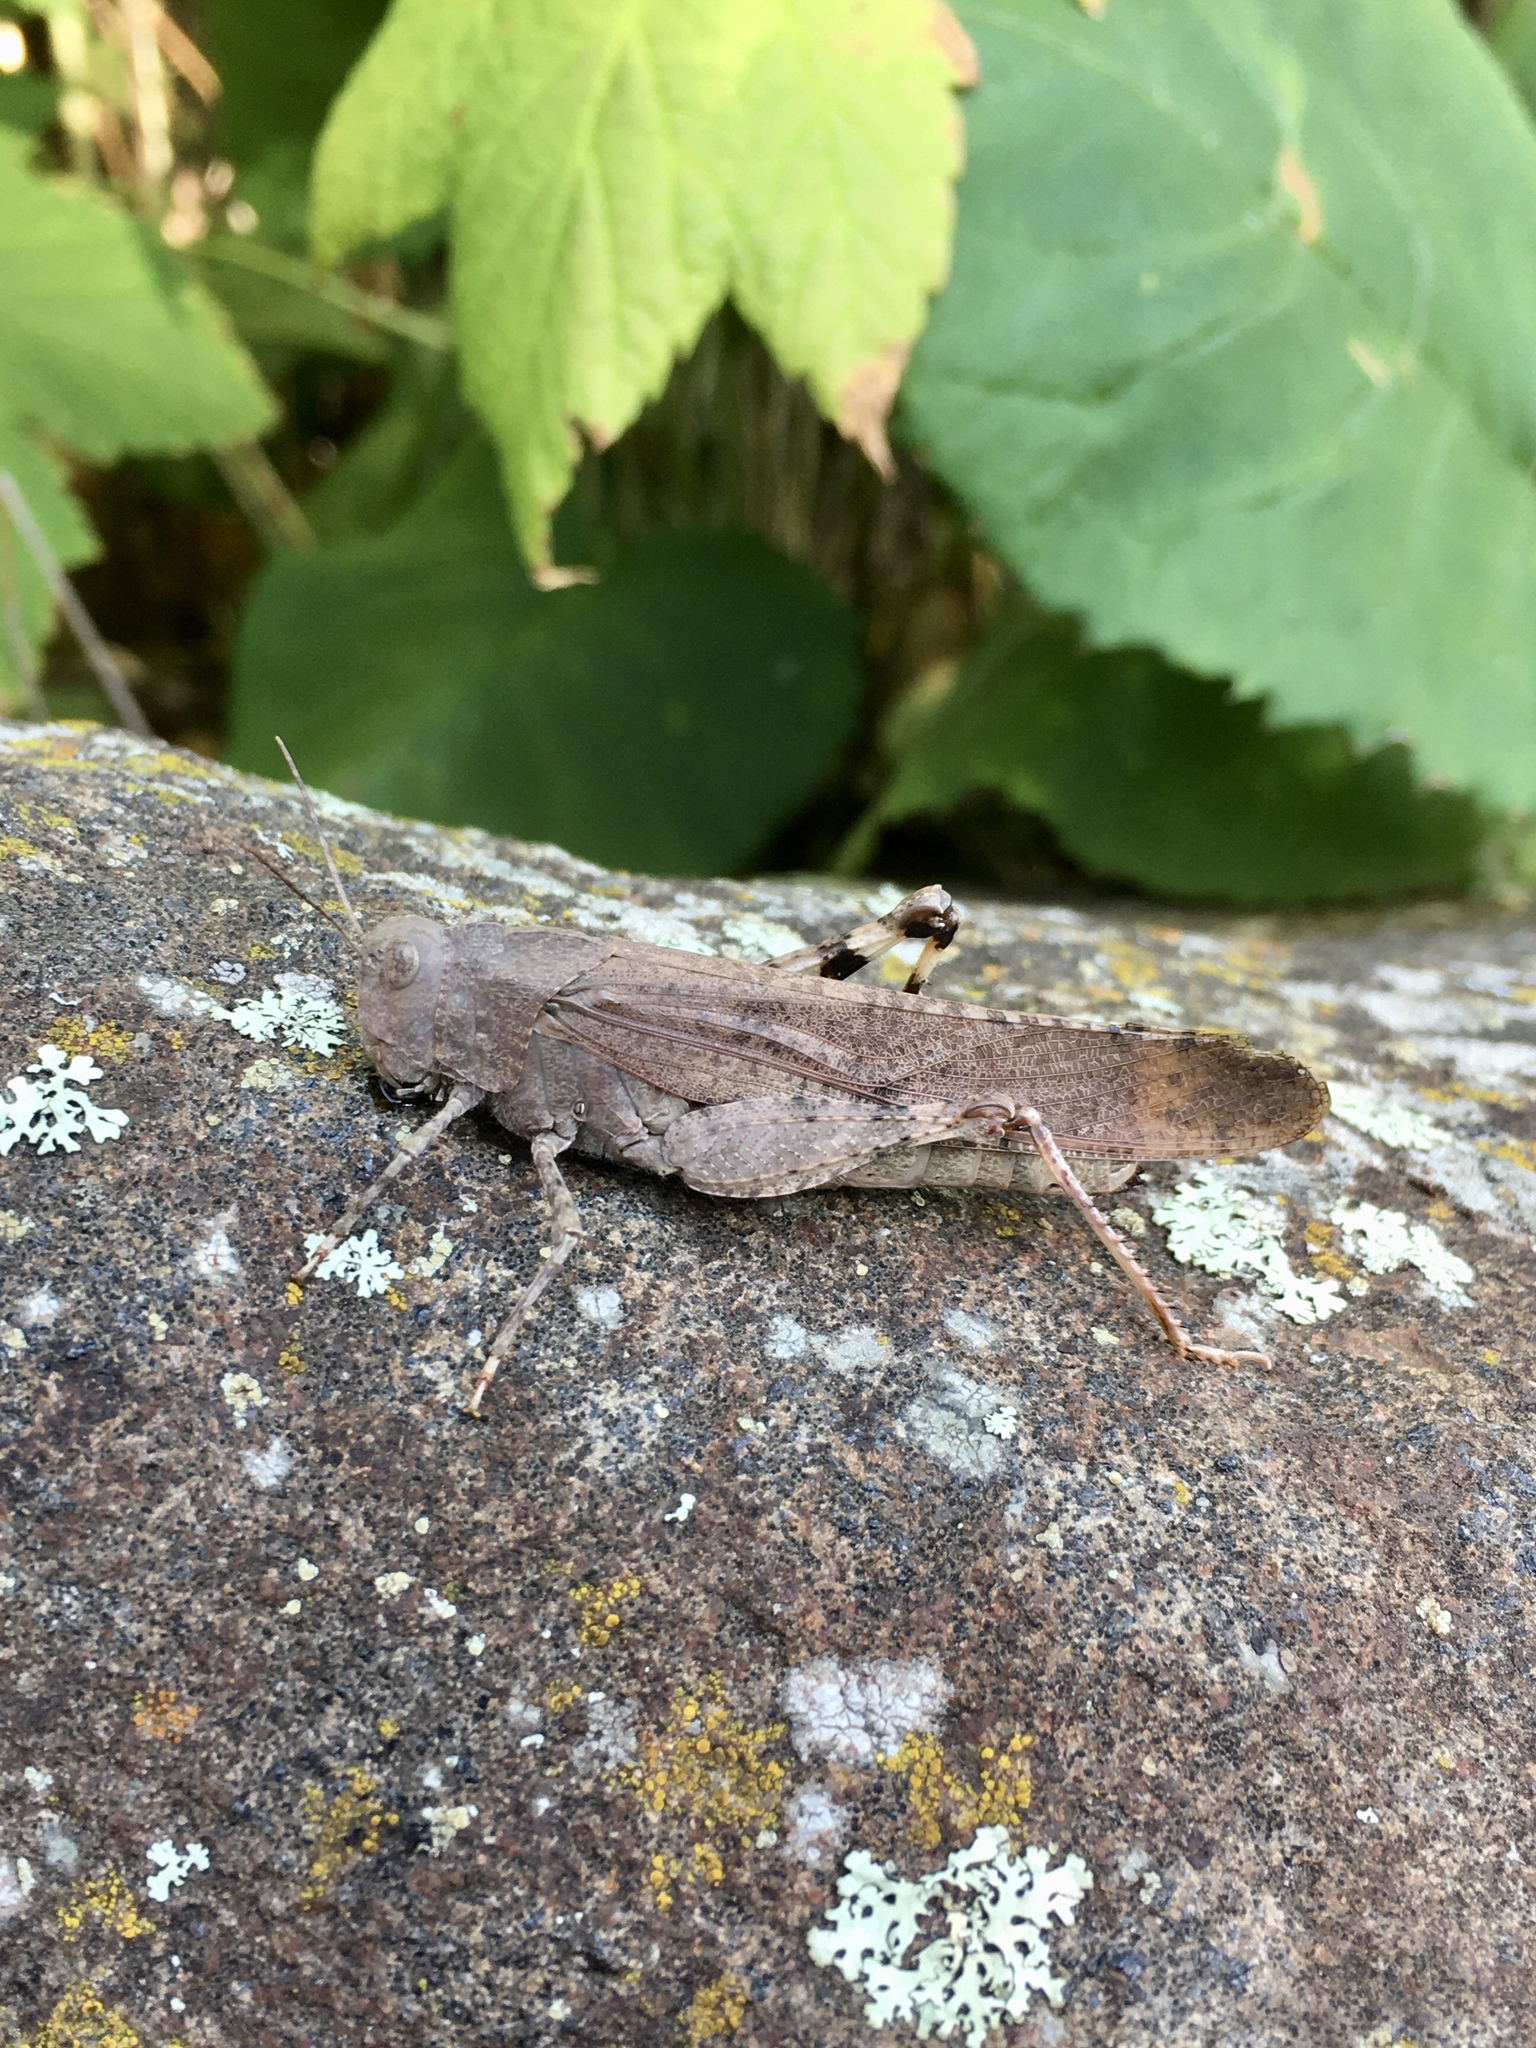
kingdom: Animalia
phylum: Arthropoda
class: Insecta
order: Orthoptera
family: Acrididae
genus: Dissosteira
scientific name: Dissosteira carolina
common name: Carolina grasshopper
